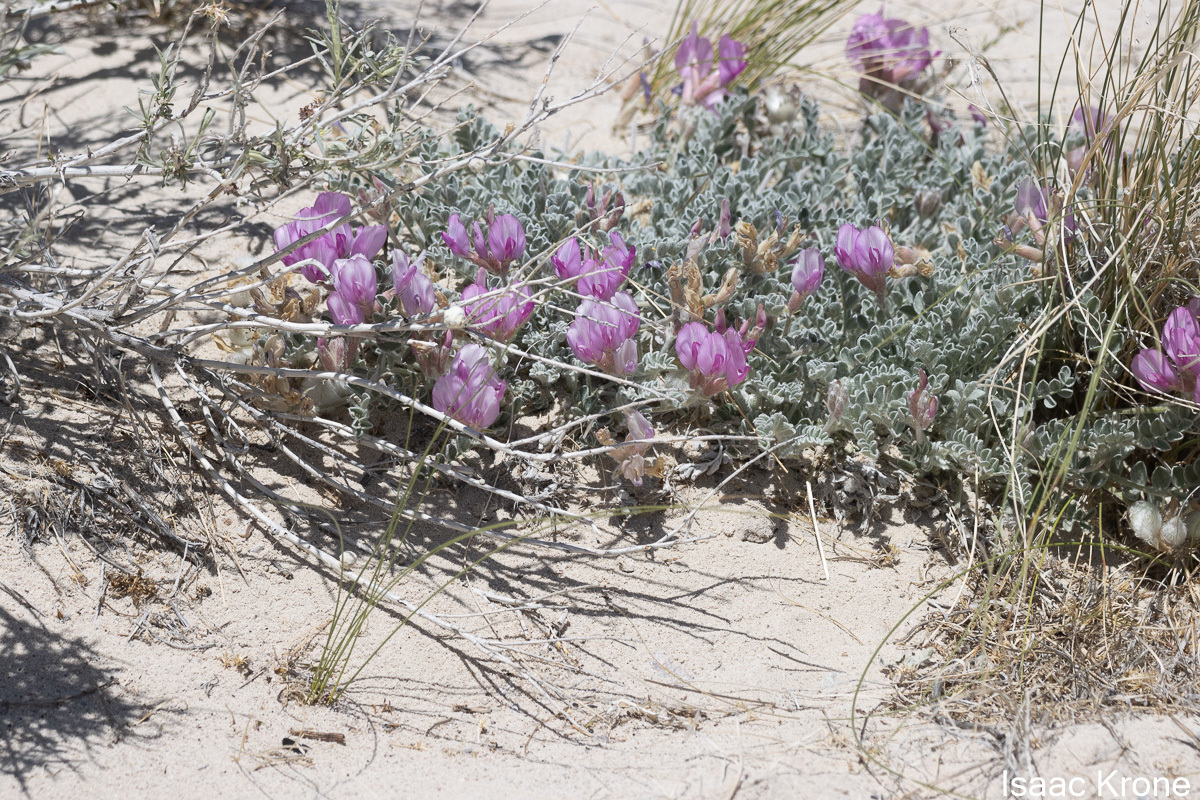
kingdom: Plantae
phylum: Tracheophyta
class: Magnoliopsida
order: Fabales
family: Fabaceae
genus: Astragalus
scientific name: Astragalus utahensis
